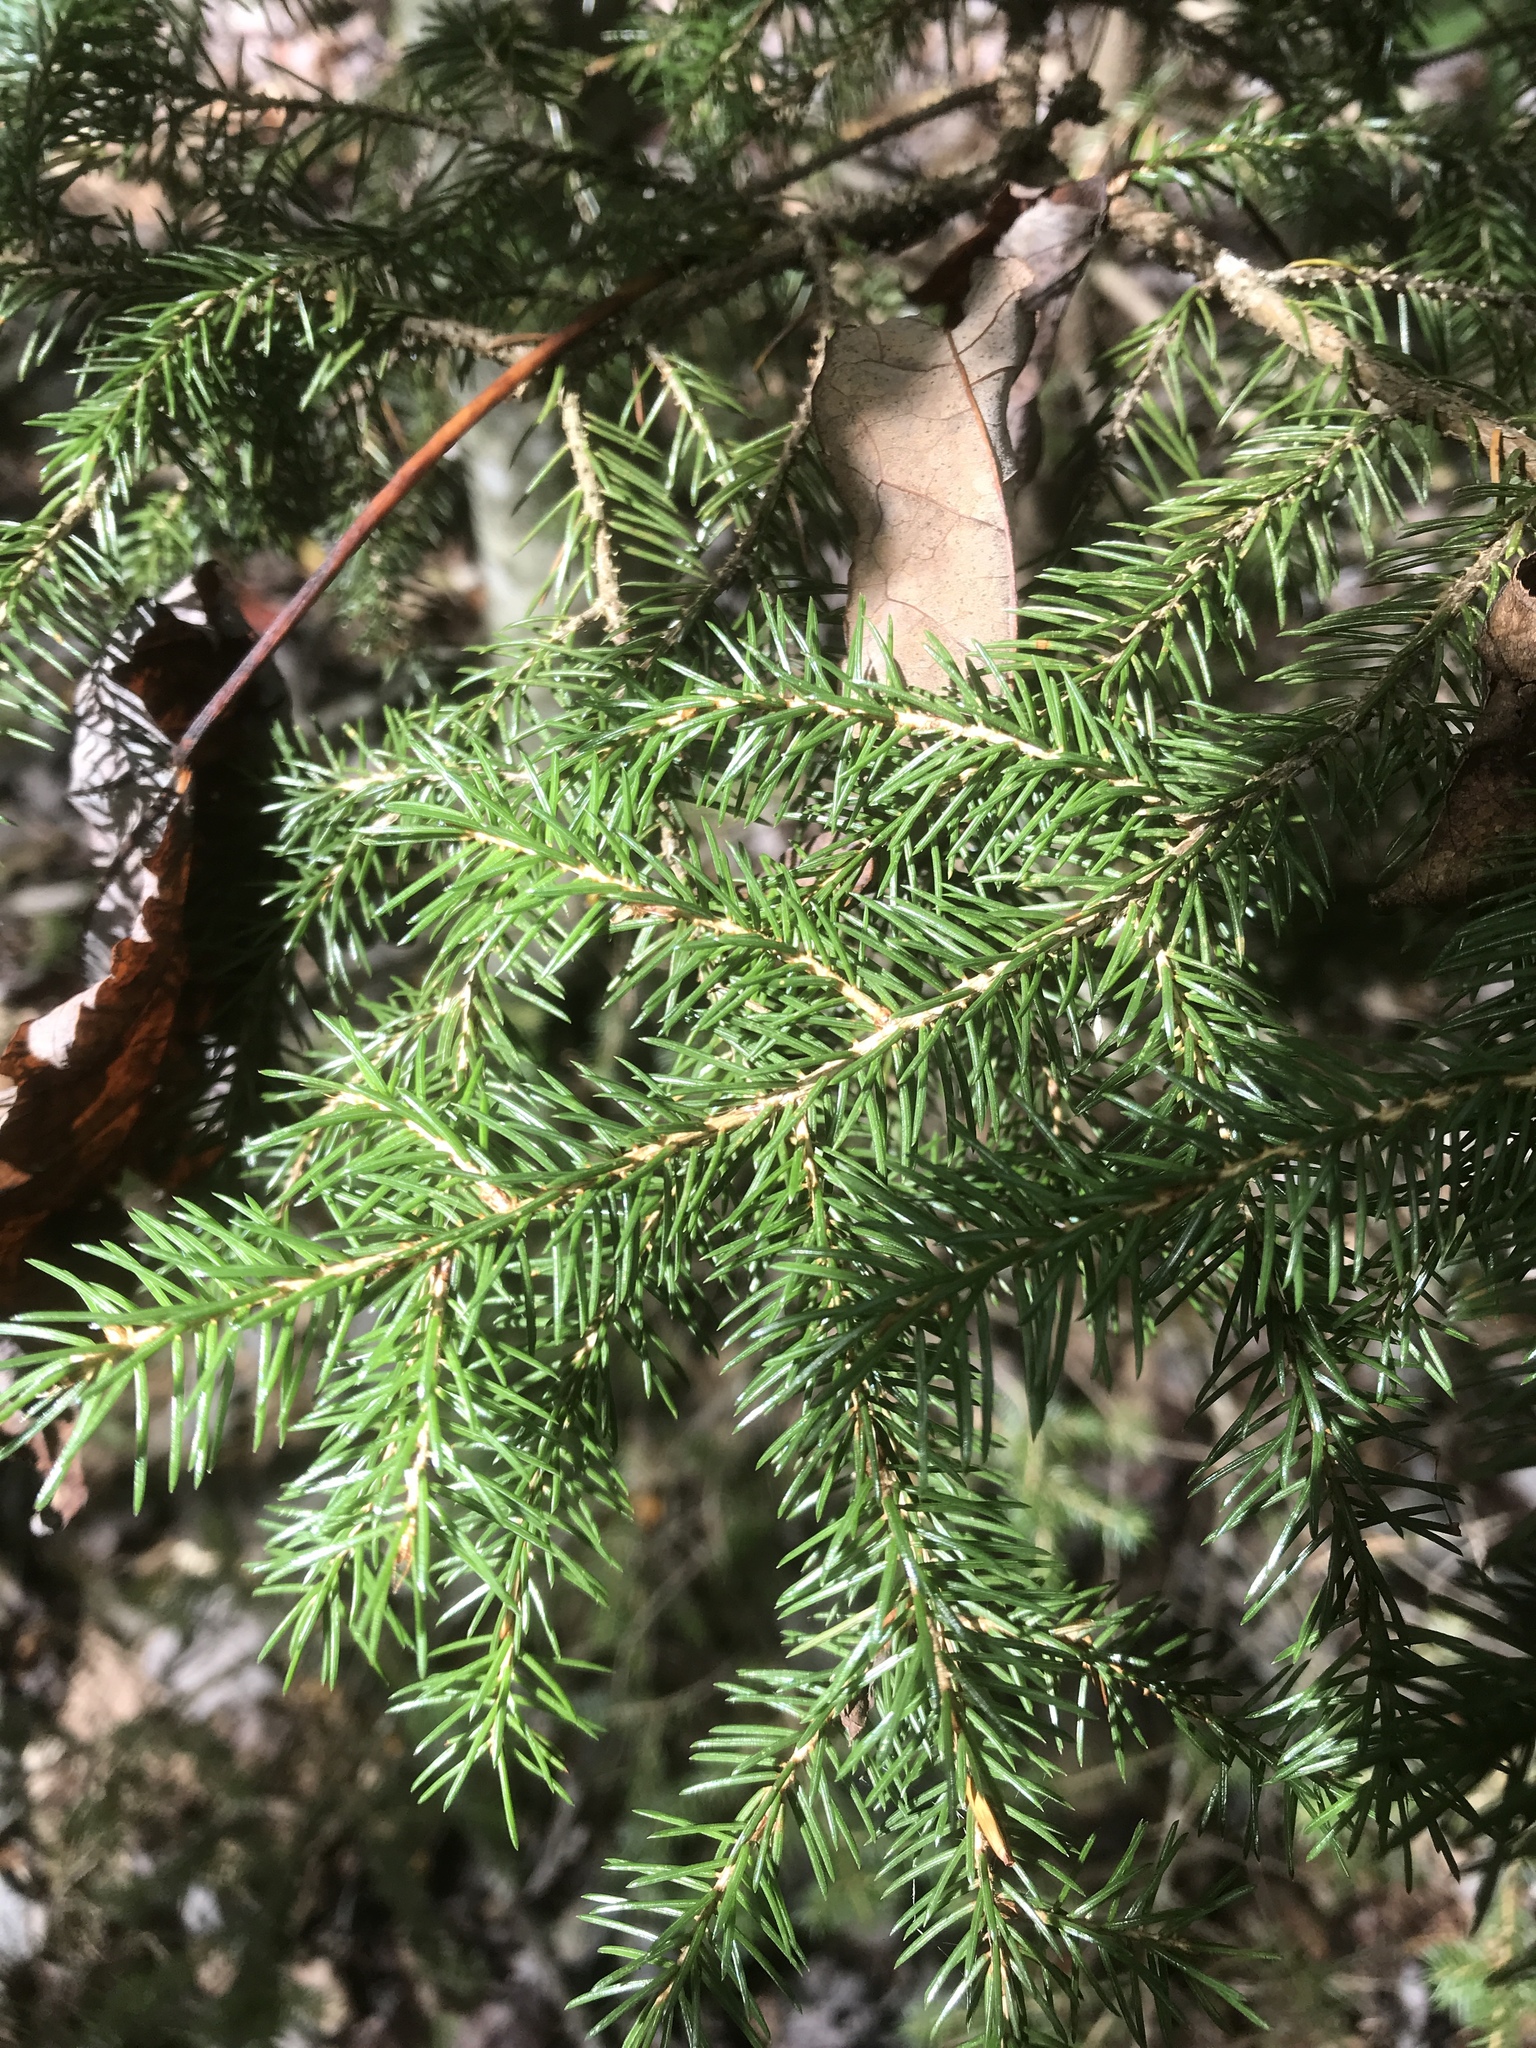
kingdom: Plantae
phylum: Tracheophyta
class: Pinopsida
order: Pinales
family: Pinaceae
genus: Picea
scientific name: Picea rubens
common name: Red spruce
